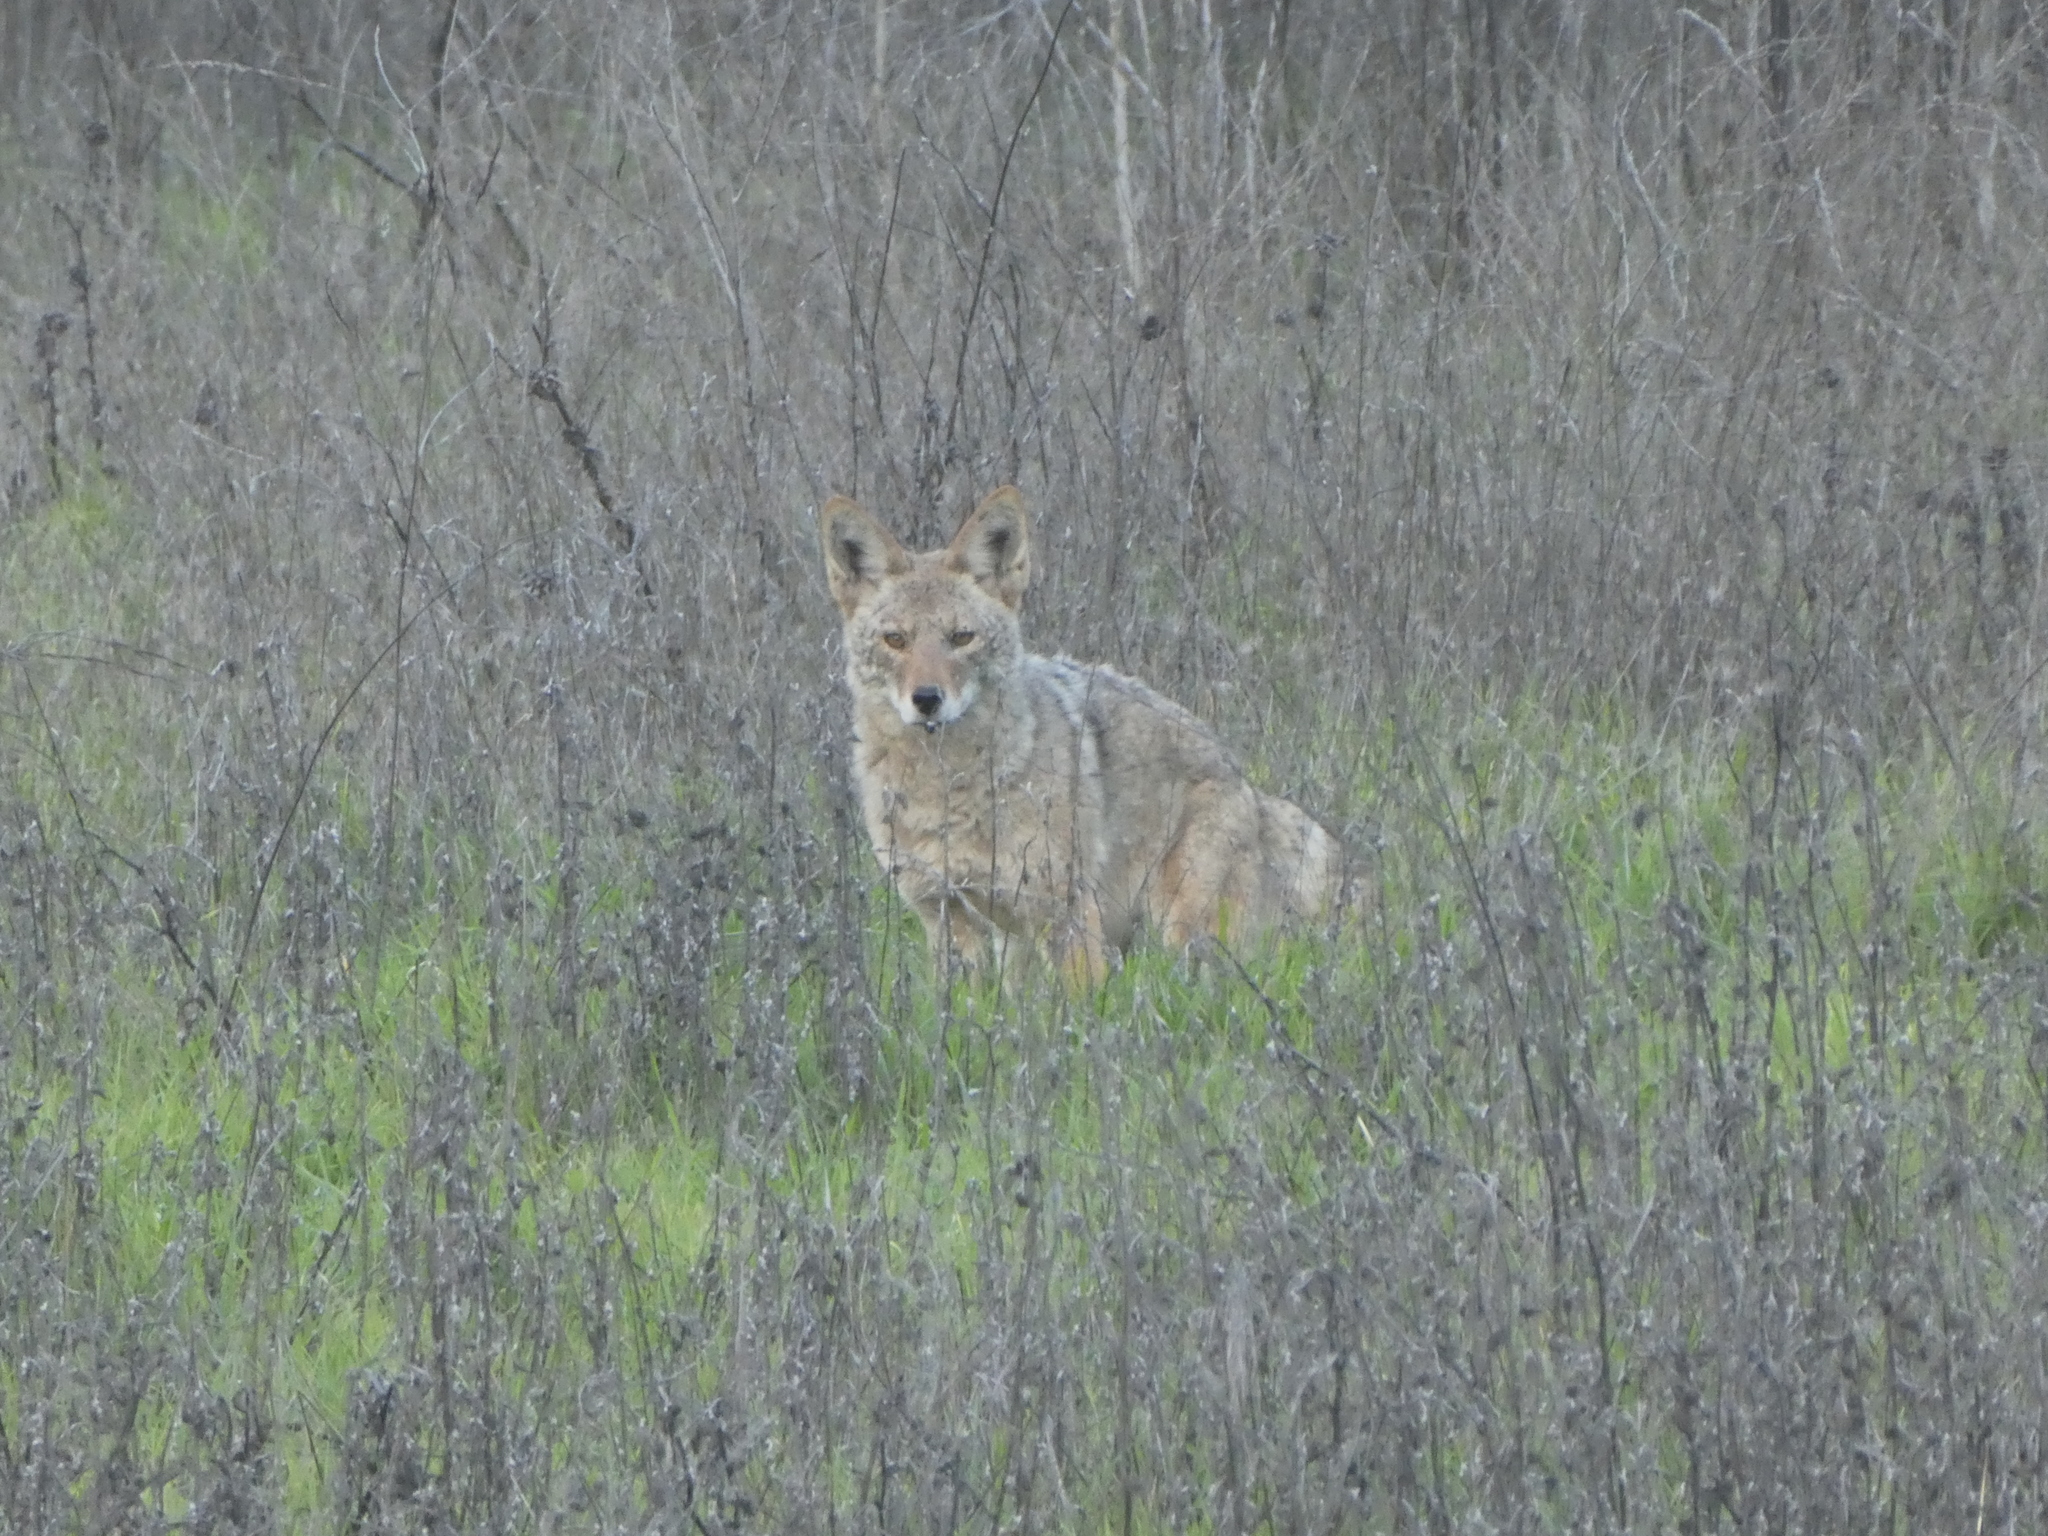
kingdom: Animalia
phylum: Chordata
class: Mammalia
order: Carnivora
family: Canidae
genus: Canis
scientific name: Canis latrans
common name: Coyote
